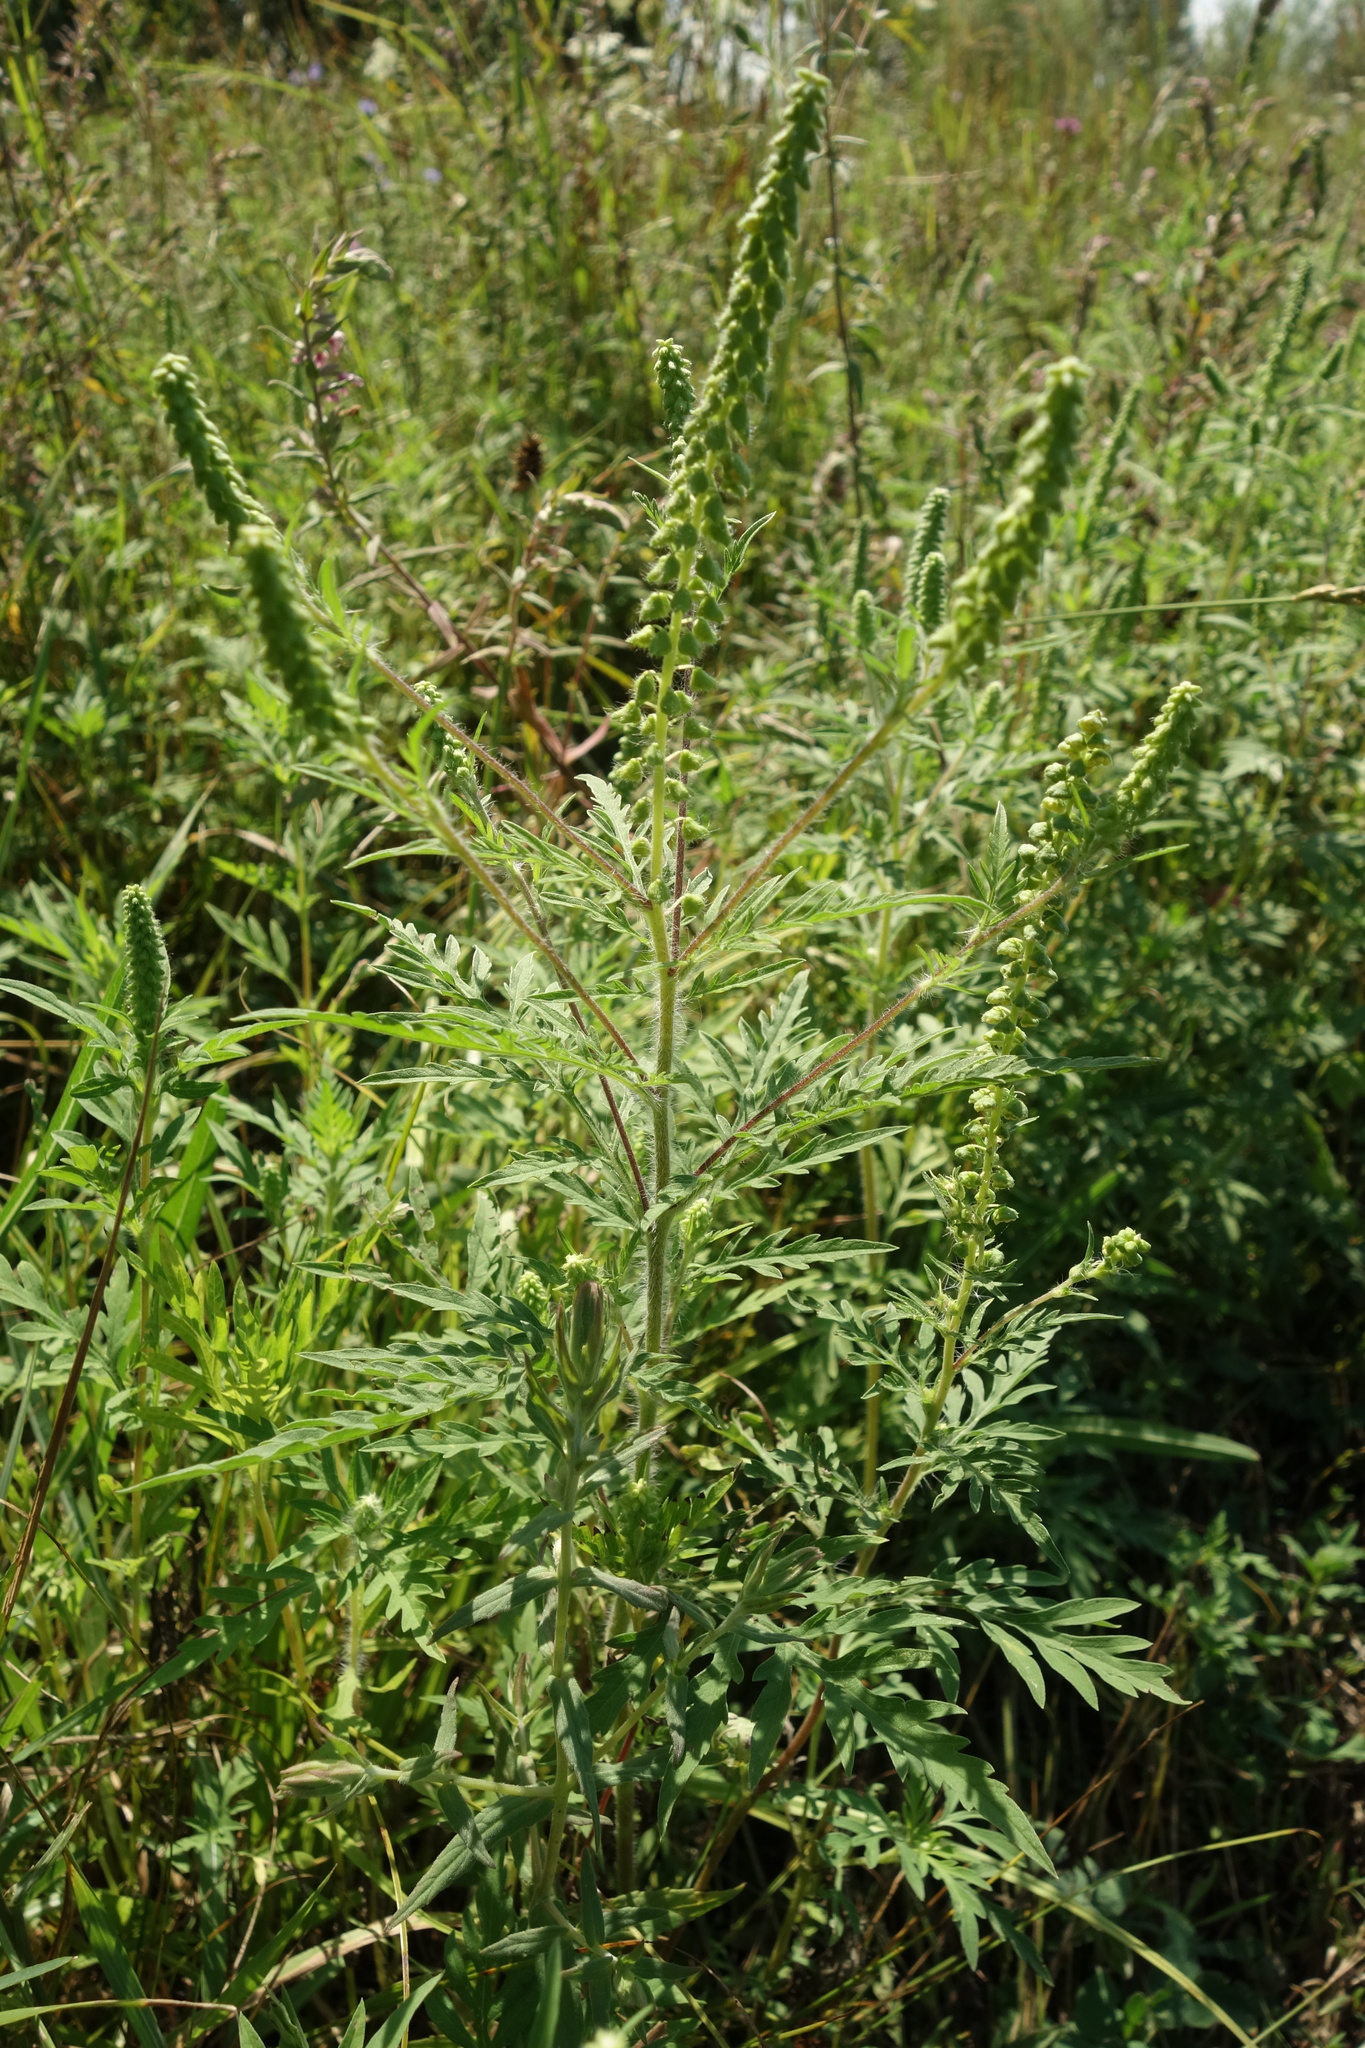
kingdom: Plantae
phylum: Tracheophyta
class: Magnoliopsida
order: Asterales
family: Asteraceae
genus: Ambrosia
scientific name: Ambrosia artemisiifolia
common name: Annual ragweed
